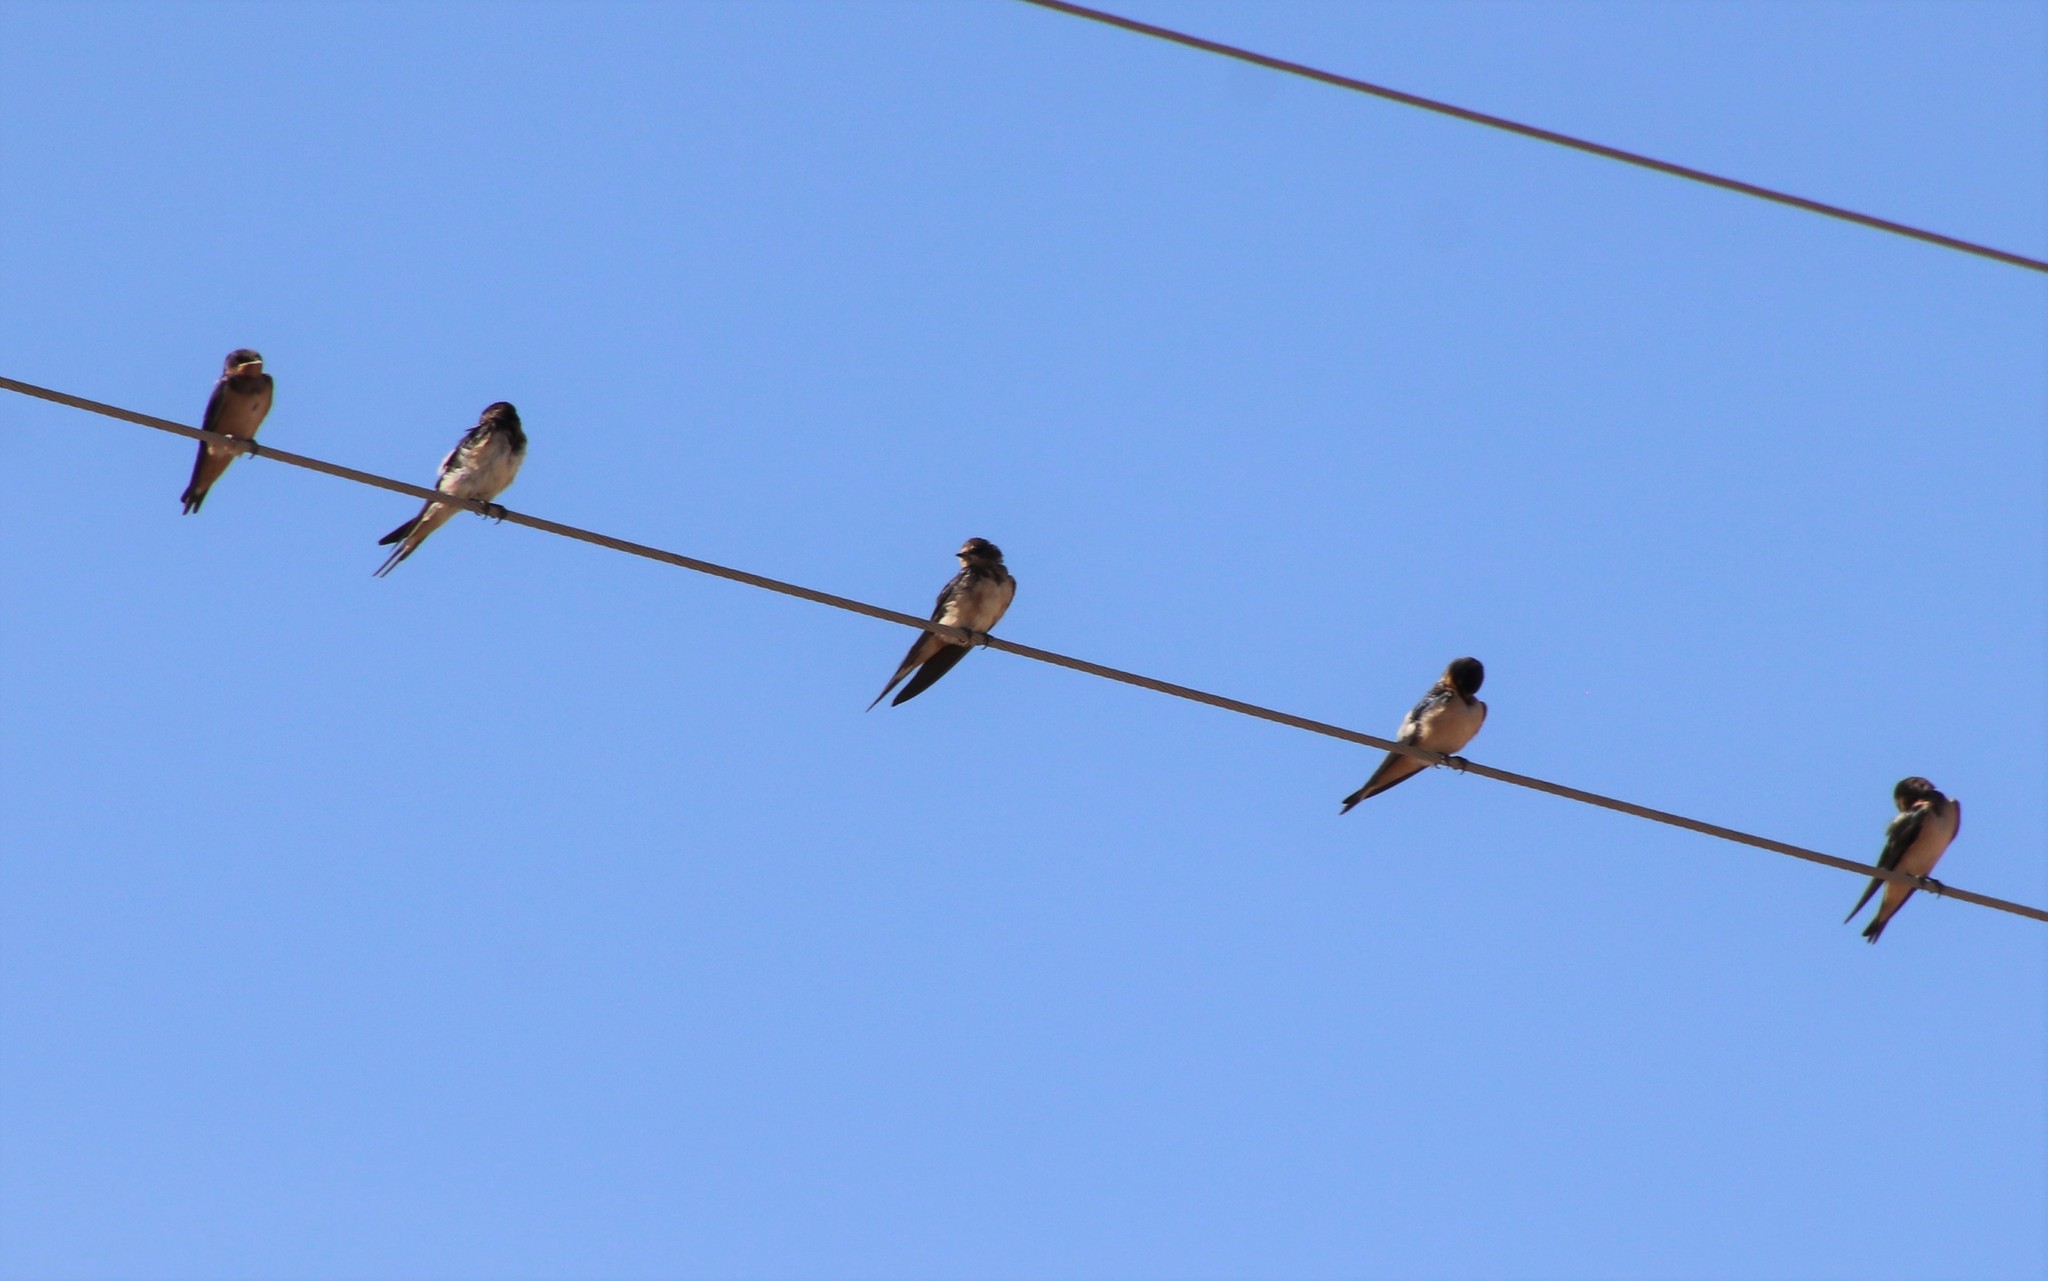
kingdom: Animalia
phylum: Chordata
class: Aves
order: Passeriformes
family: Hirundinidae
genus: Hirundo
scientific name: Hirundo rustica
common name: Barn swallow
